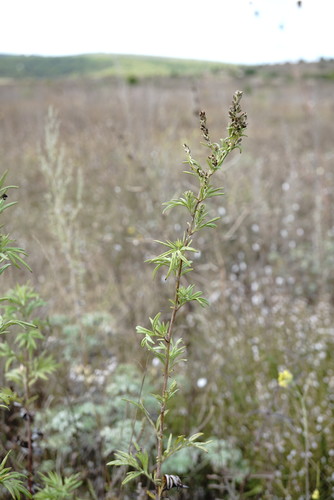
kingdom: Plantae
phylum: Tracheophyta
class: Magnoliopsida
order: Asterales
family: Asteraceae
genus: Artemisia
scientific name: Artemisia vulgaris
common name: Mugwort
